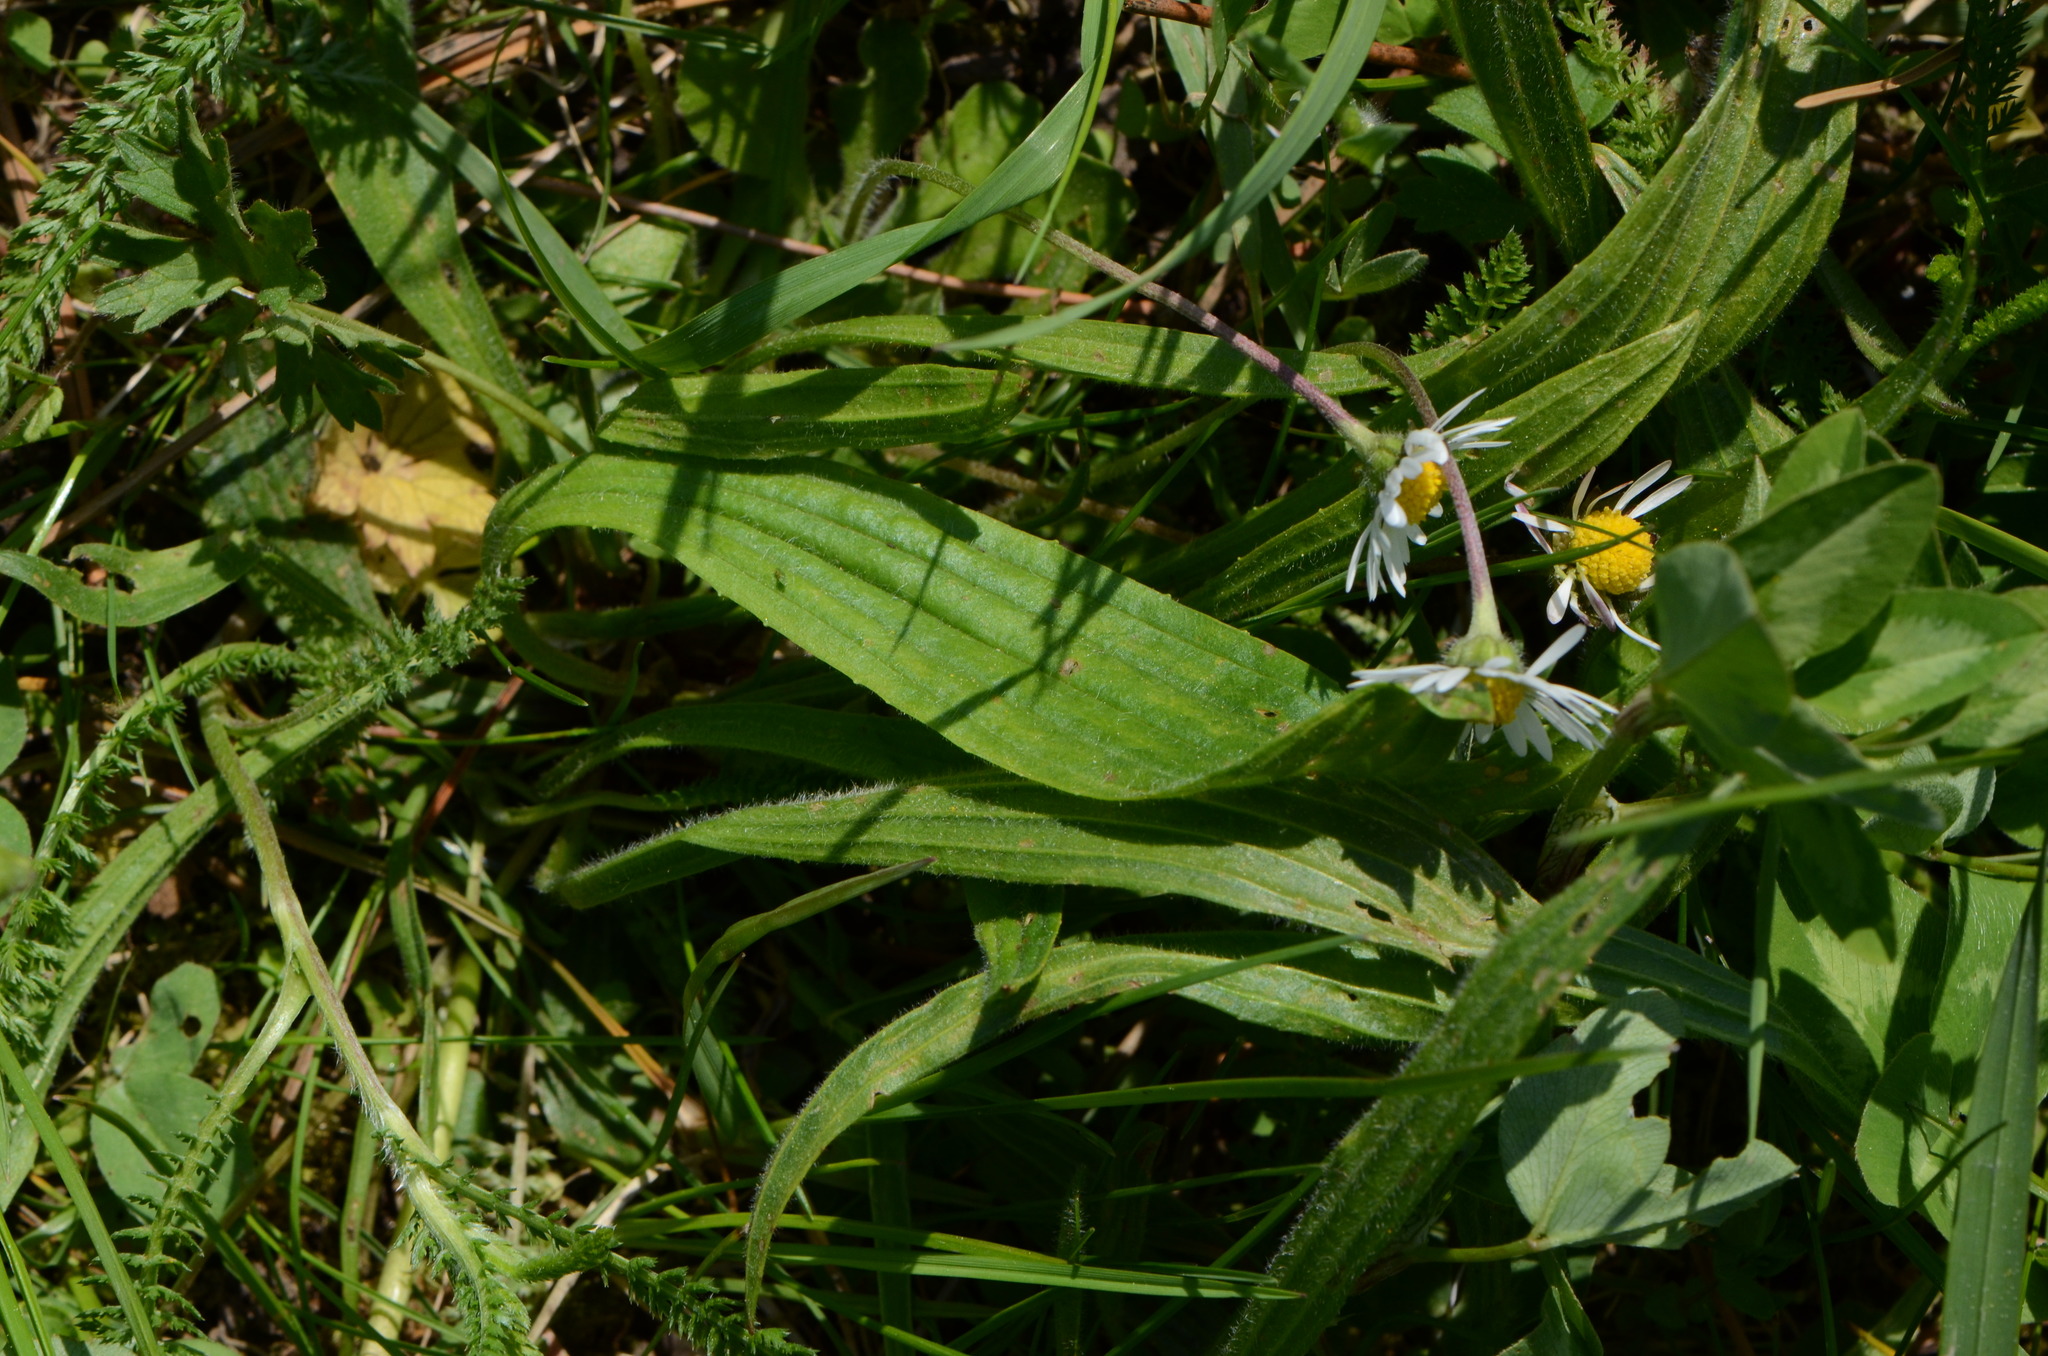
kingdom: Plantae
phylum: Tracheophyta
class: Magnoliopsida
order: Lamiales
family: Plantaginaceae
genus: Plantago
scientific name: Plantago lanceolata
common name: Ribwort plantain
